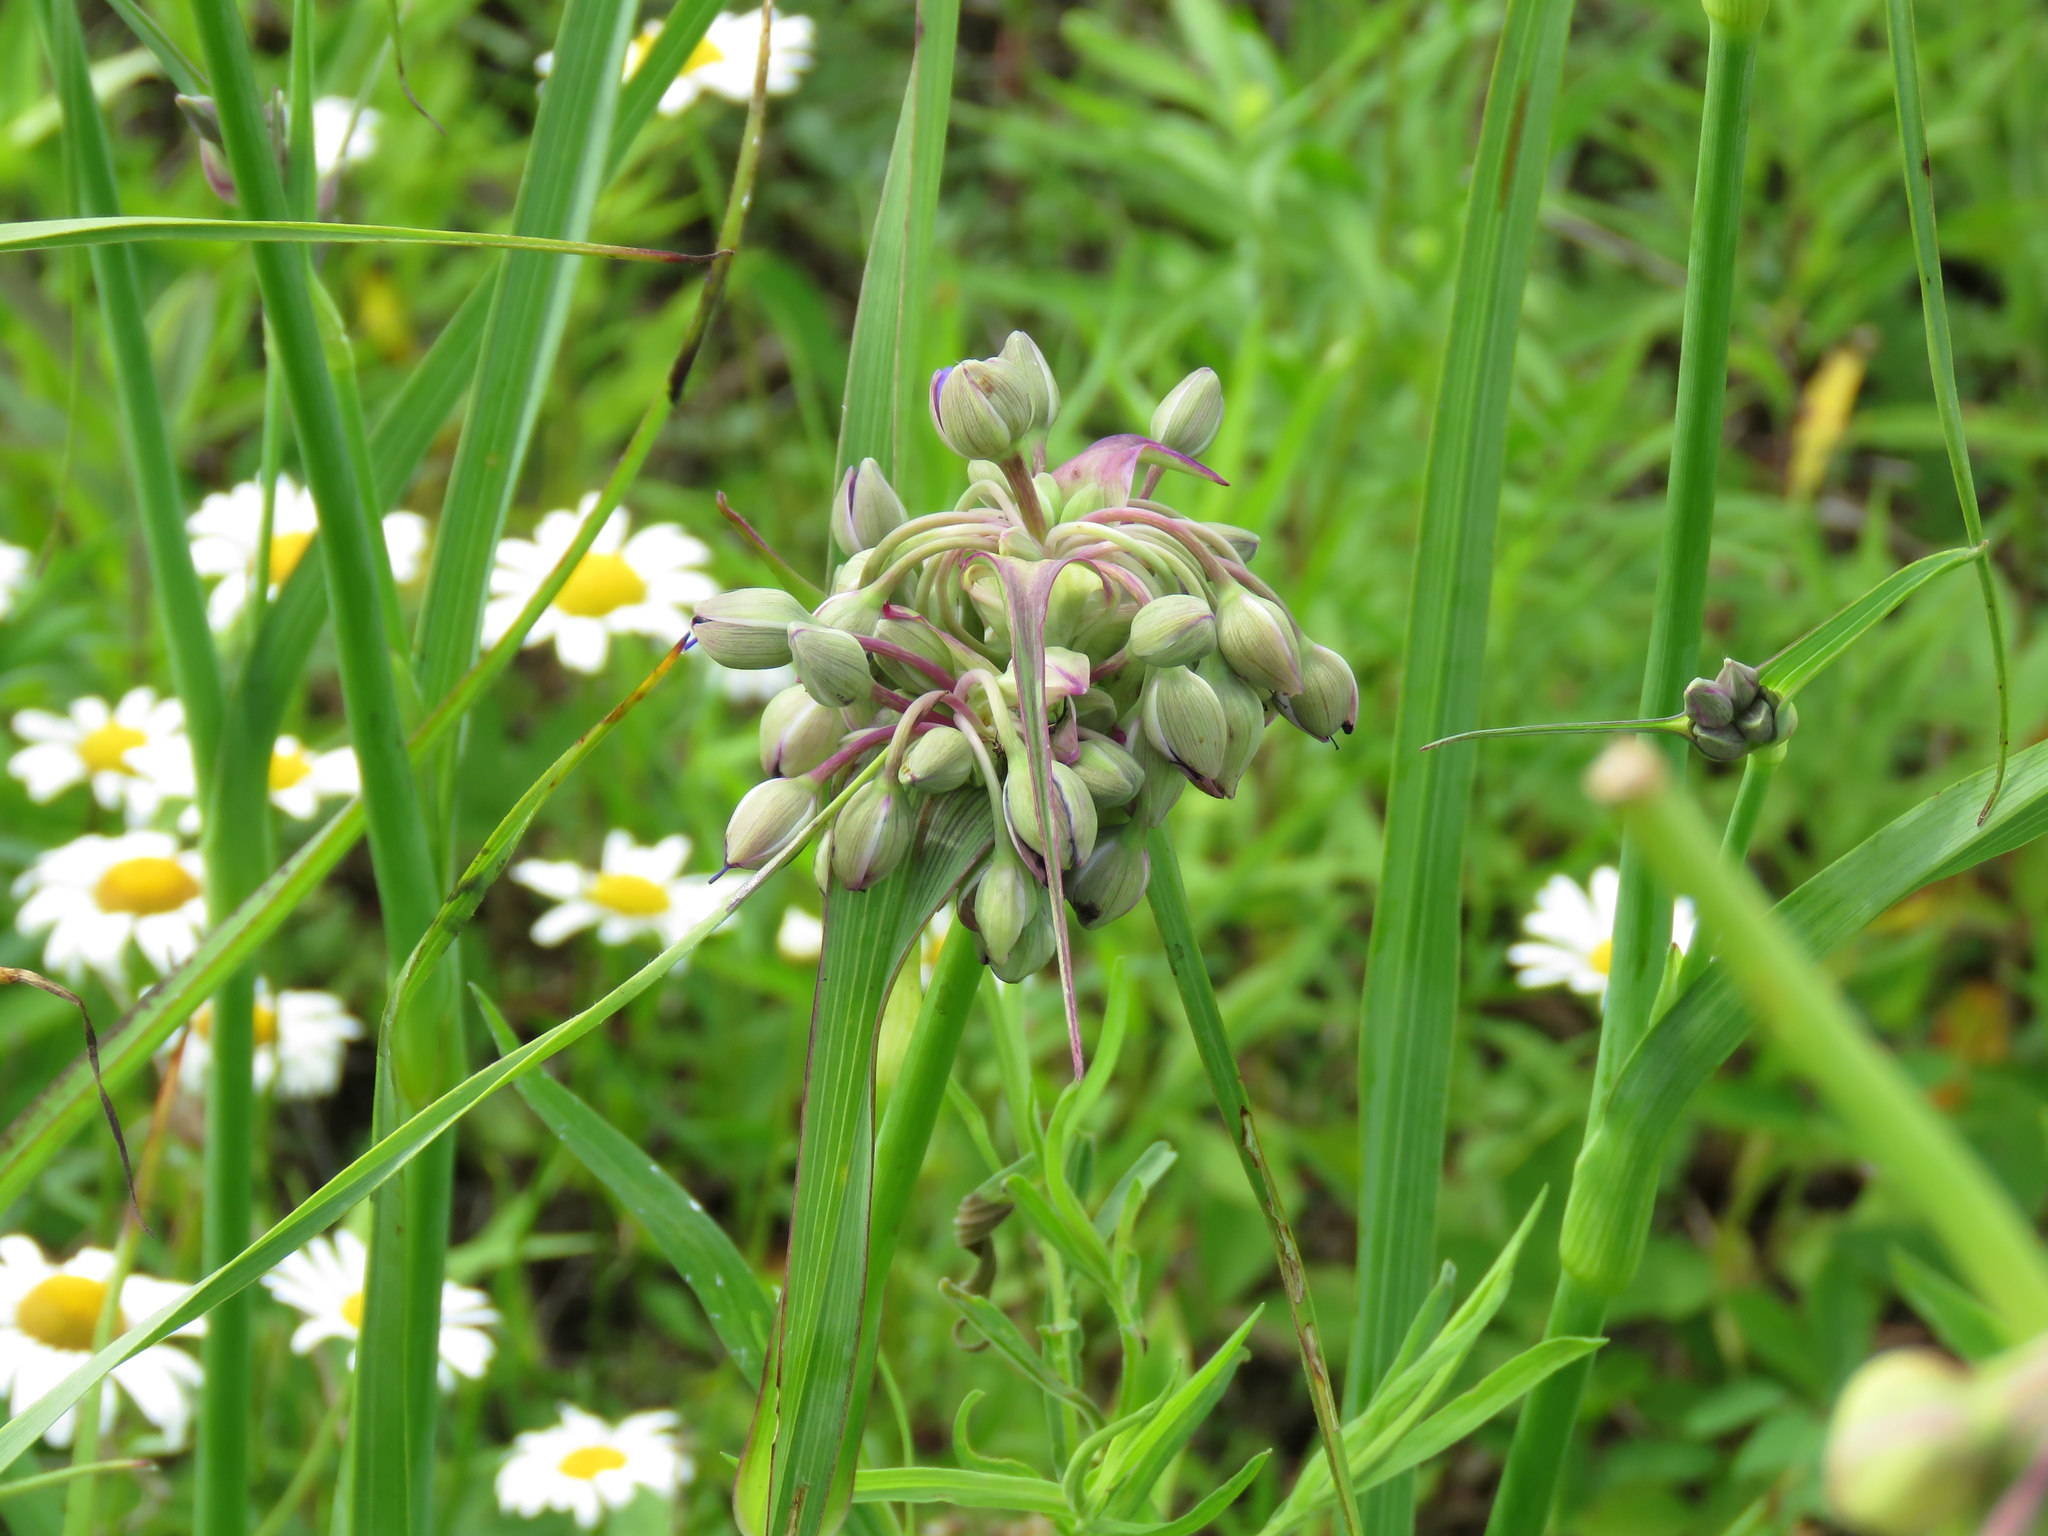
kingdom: Plantae
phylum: Tracheophyta
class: Liliopsida
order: Commelinales
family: Commelinaceae
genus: Tradescantia
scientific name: Tradescantia ohiensis
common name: Ohio spiderwort
